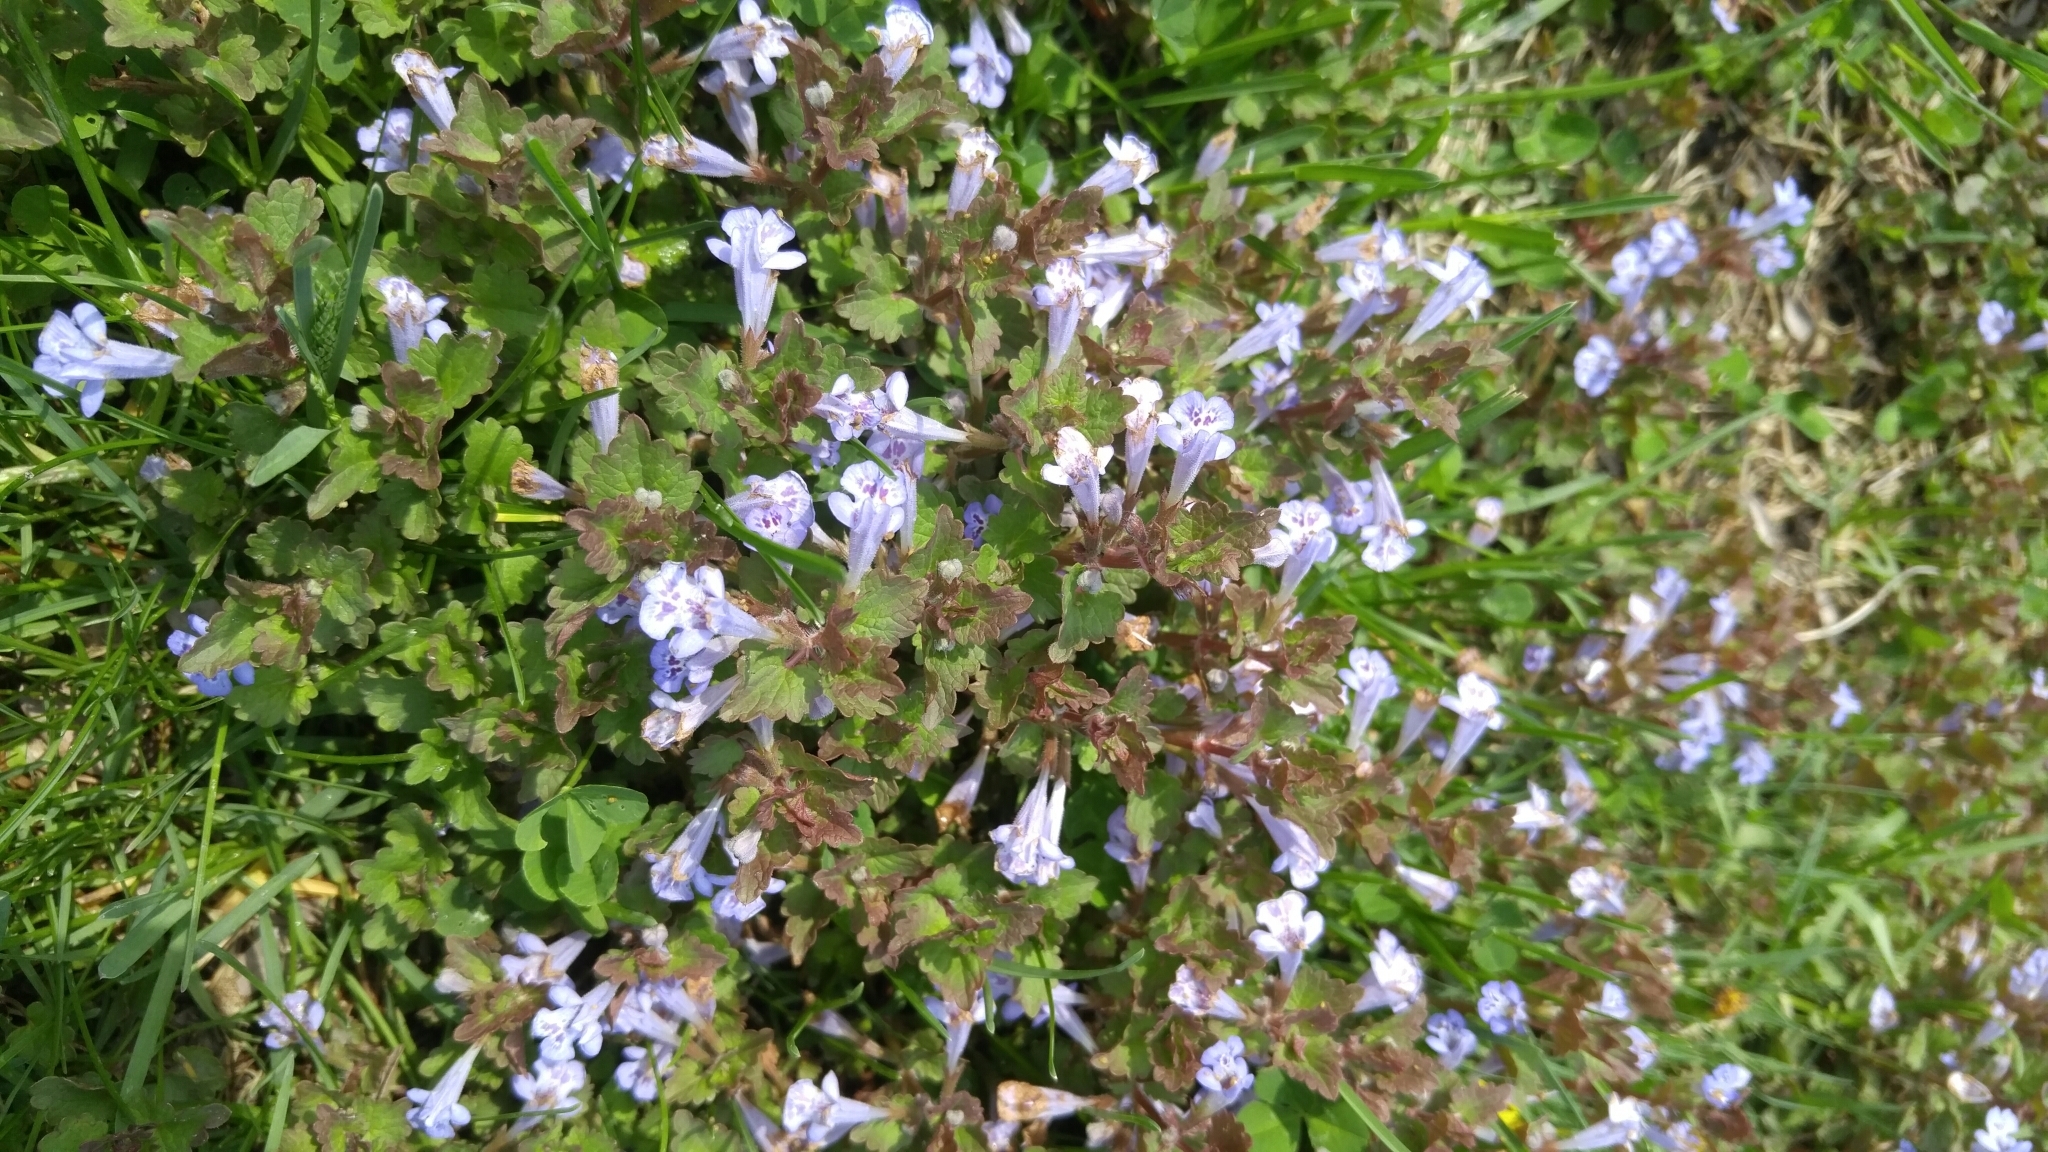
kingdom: Plantae
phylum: Tracheophyta
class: Magnoliopsida
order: Lamiales
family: Lamiaceae
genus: Glechoma
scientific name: Glechoma hederacea
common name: Ground ivy
